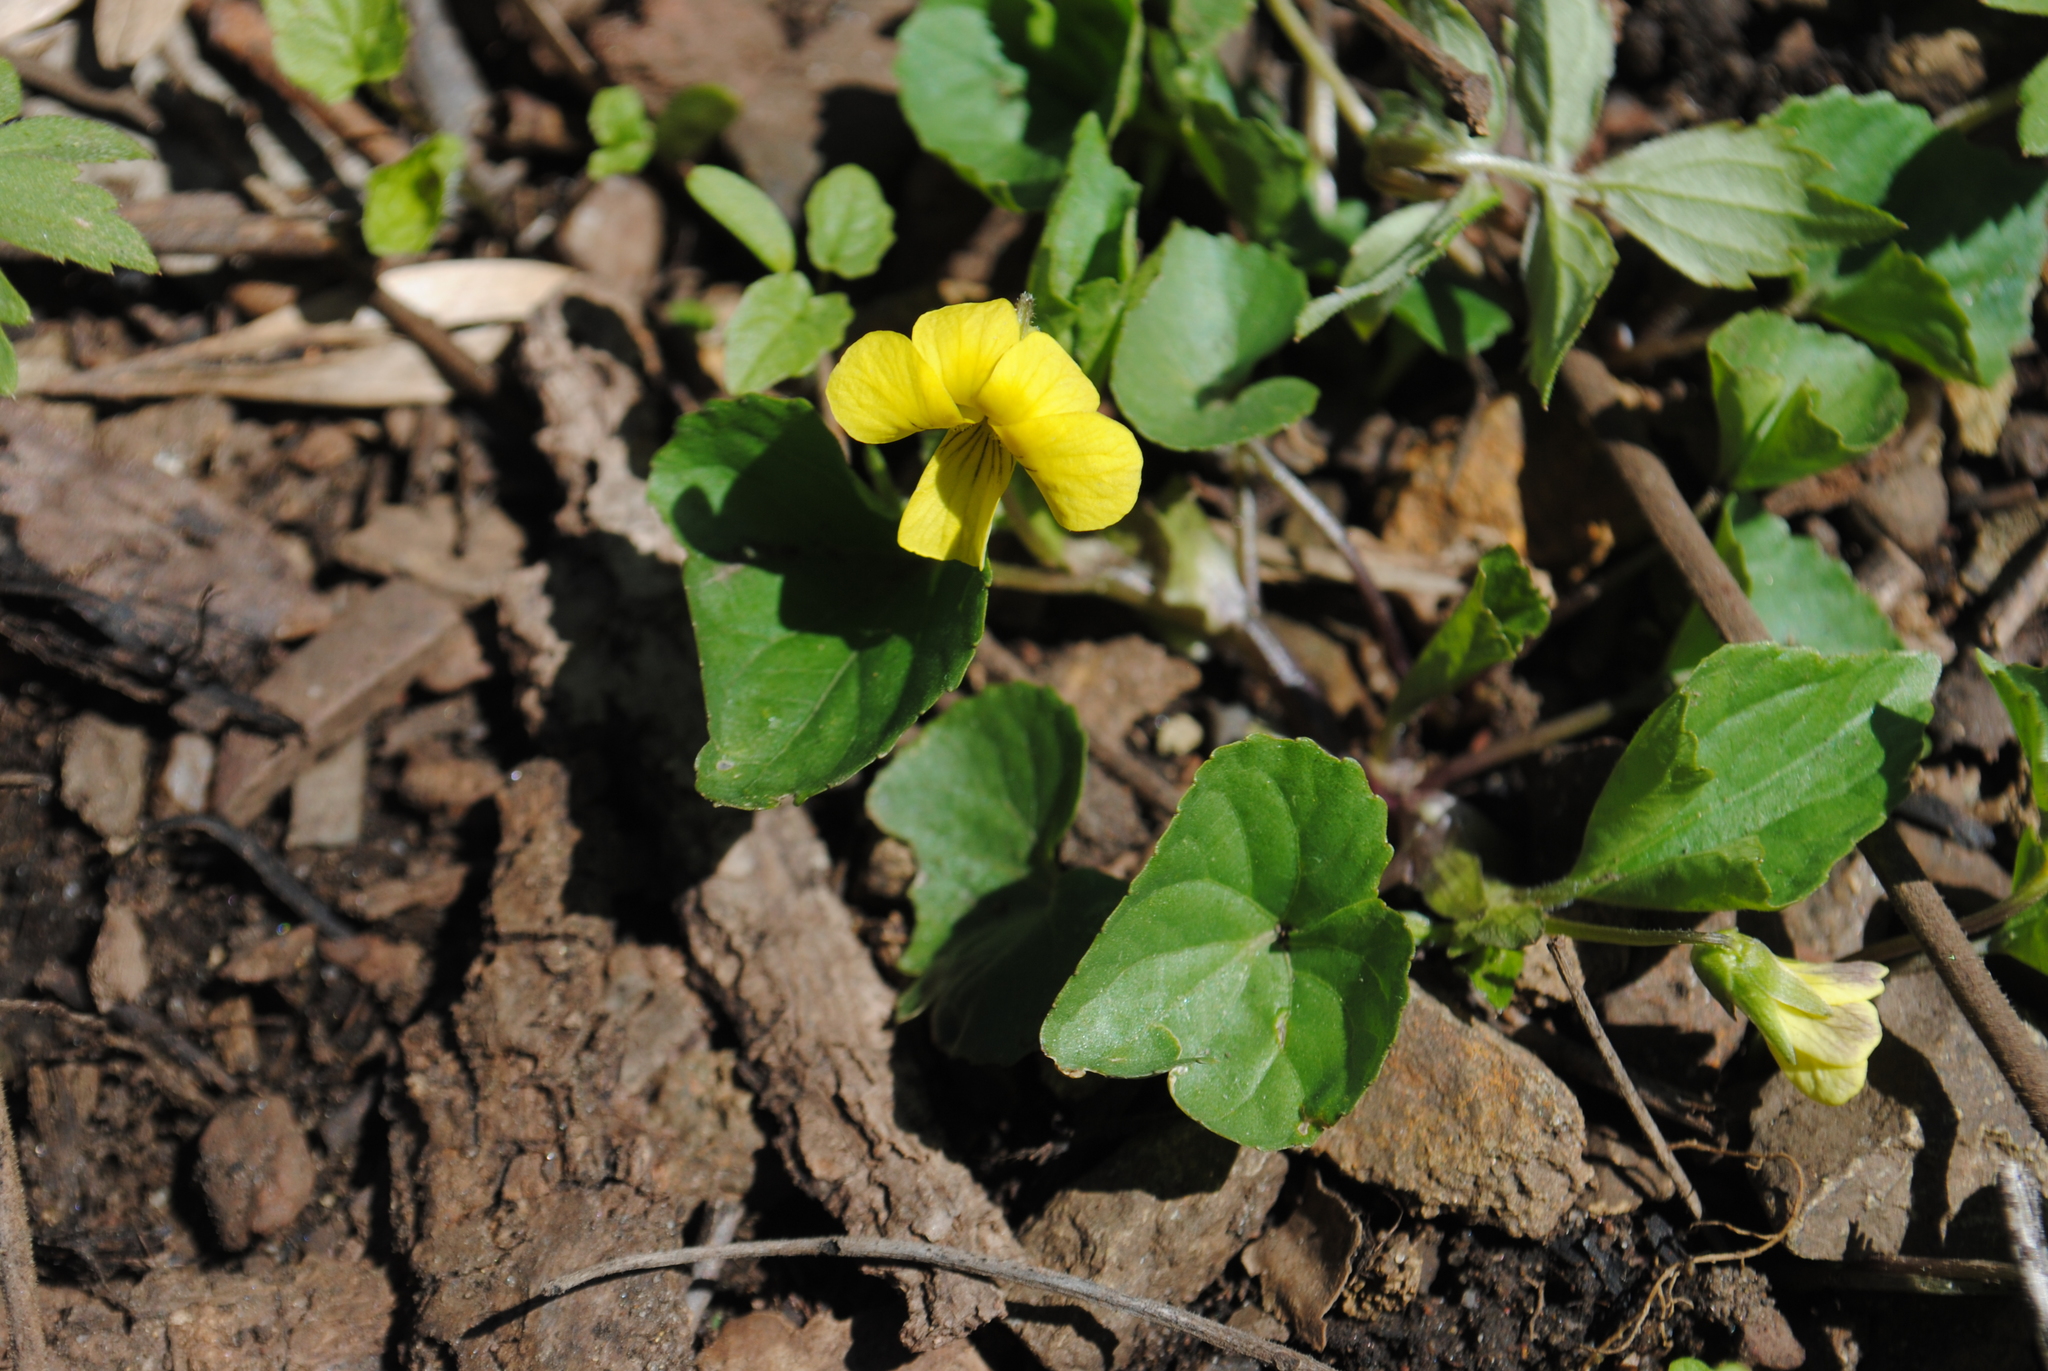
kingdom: Plantae
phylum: Tracheophyta
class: Magnoliopsida
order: Malpighiales
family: Violaceae
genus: Viola
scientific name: Viola eriocarpa
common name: Smooth yellow violet
